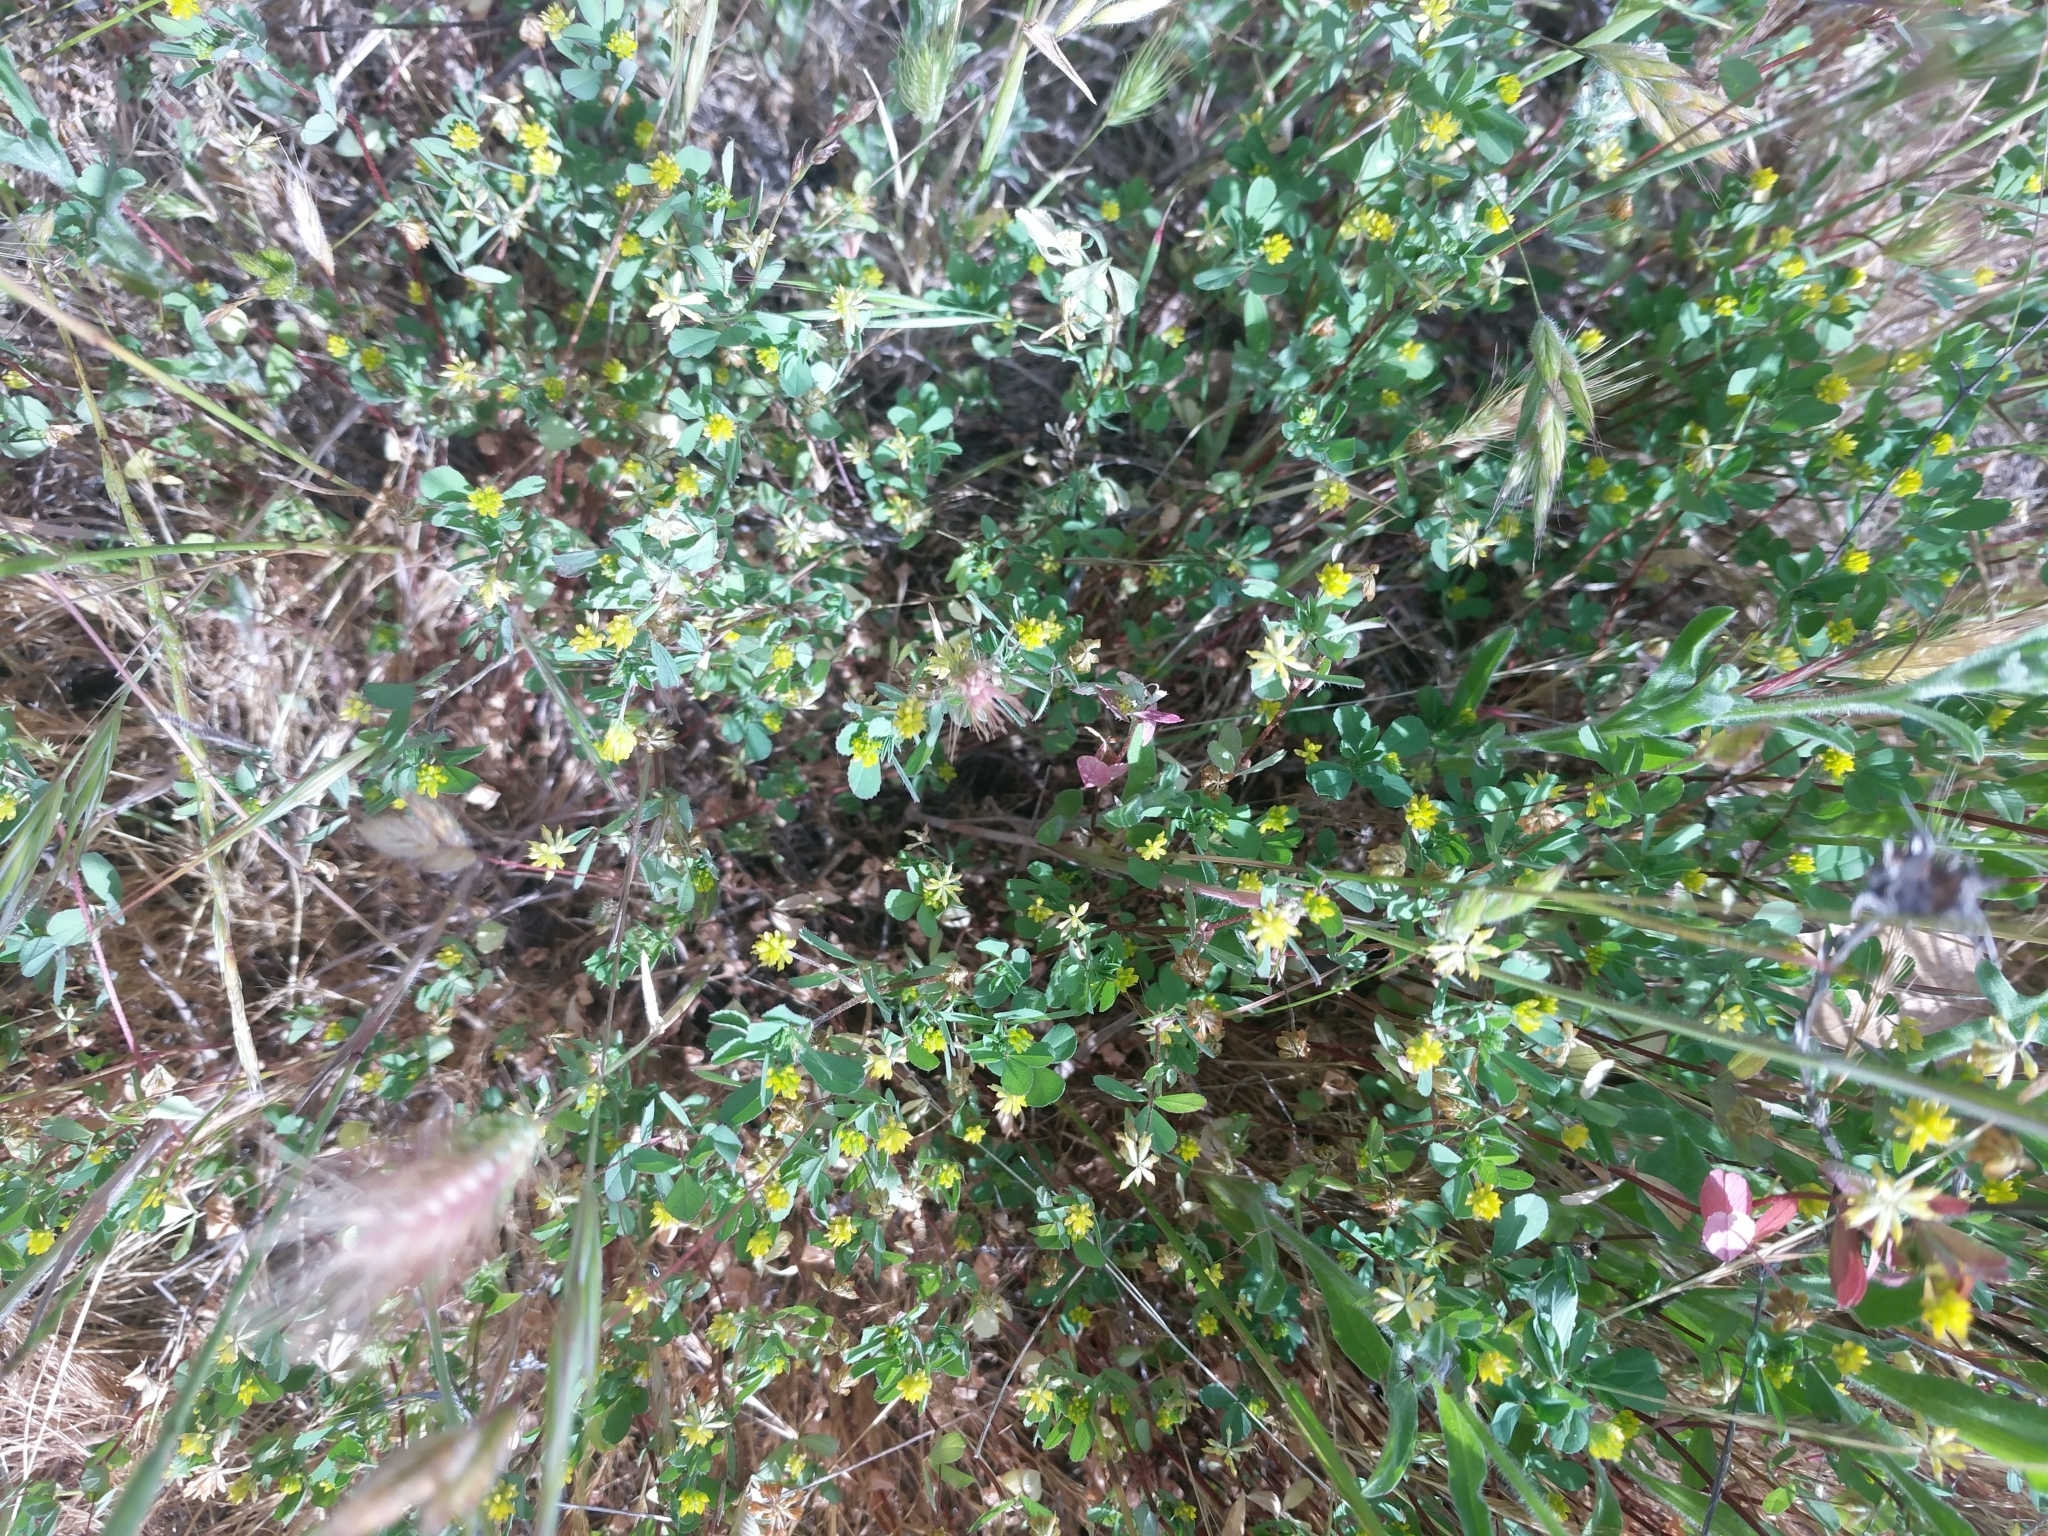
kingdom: Plantae
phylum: Tracheophyta
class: Magnoliopsida
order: Fabales
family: Fabaceae
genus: Trifolium
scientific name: Trifolium dubium
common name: Suckling clover
